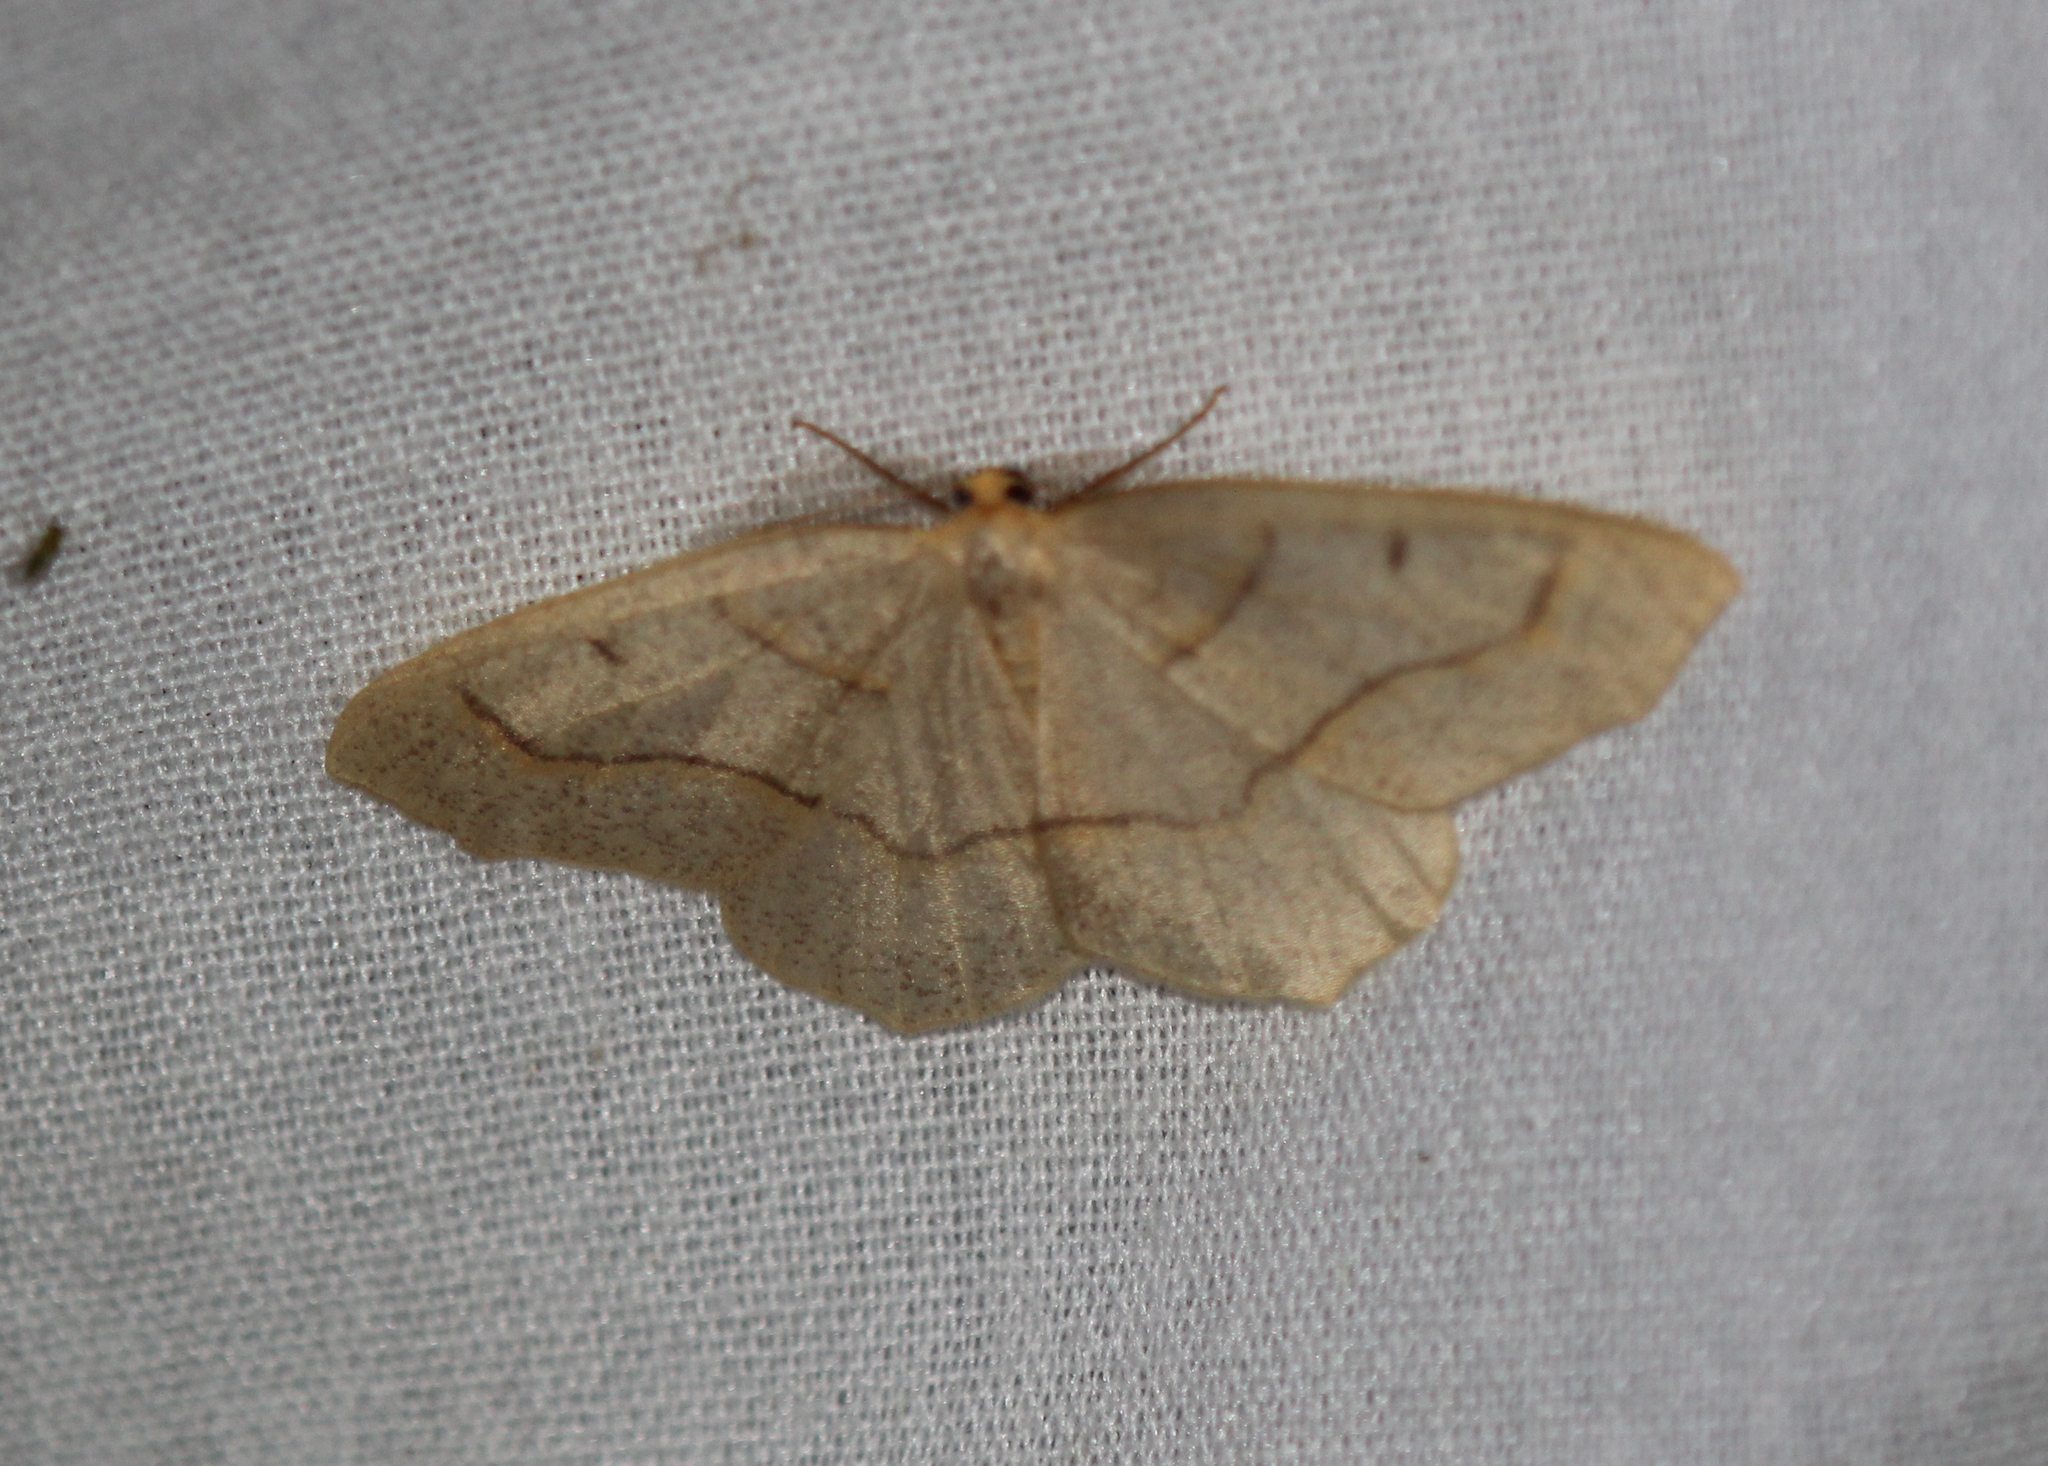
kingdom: Animalia
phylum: Arthropoda
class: Insecta
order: Lepidoptera
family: Geometridae
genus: Lambdina
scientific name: Lambdina fiscellaria
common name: Hemlock looper
